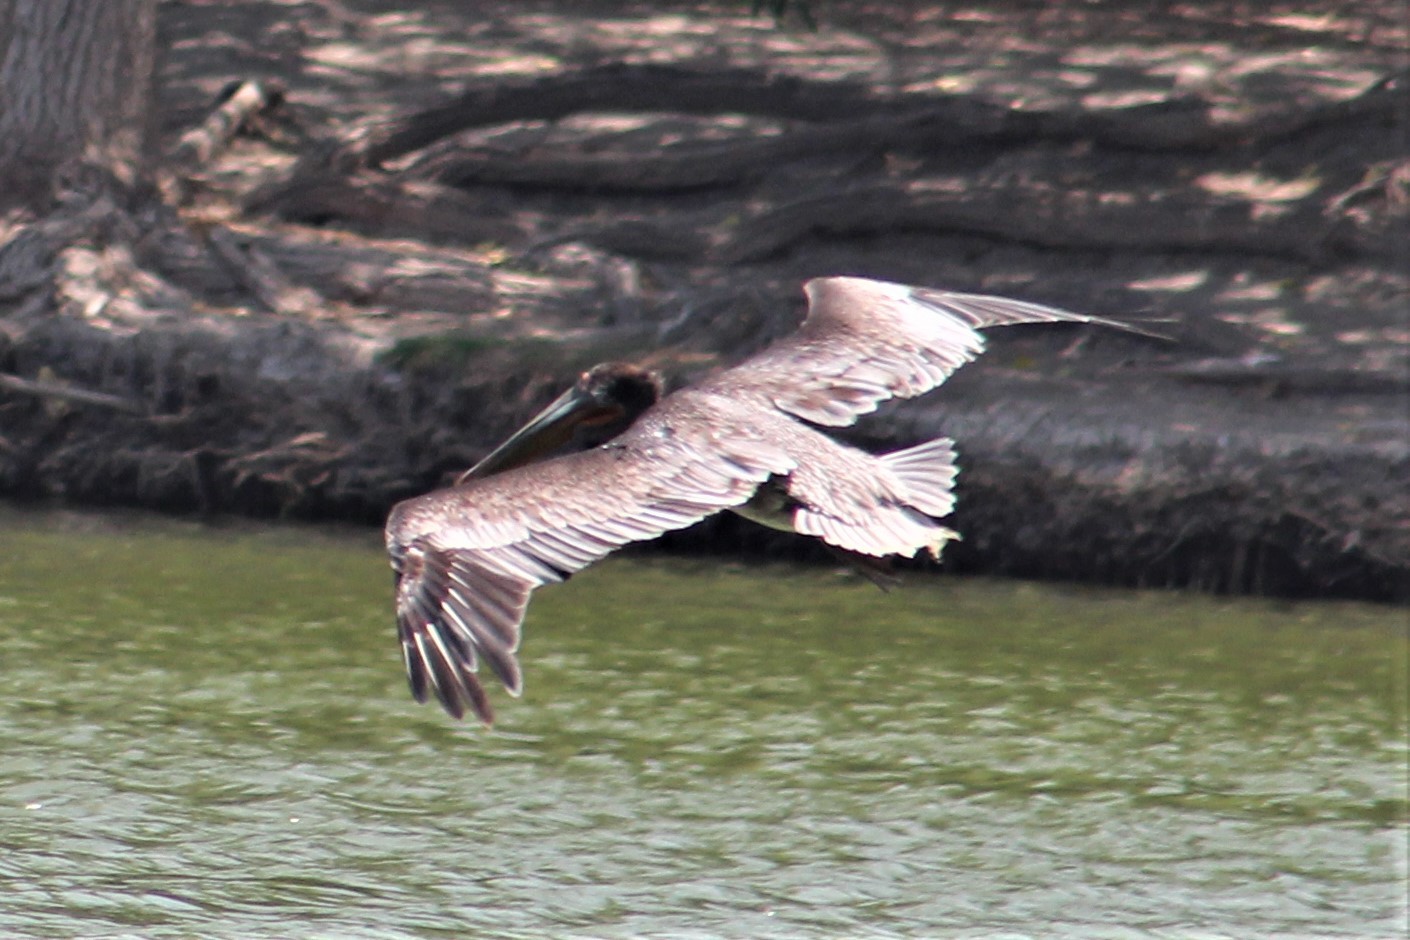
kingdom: Animalia
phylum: Chordata
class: Aves
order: Pelecaniformes
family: Pelecanidae
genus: Pelecanus
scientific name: Pelecanus occidentalis
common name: Brown pelican
